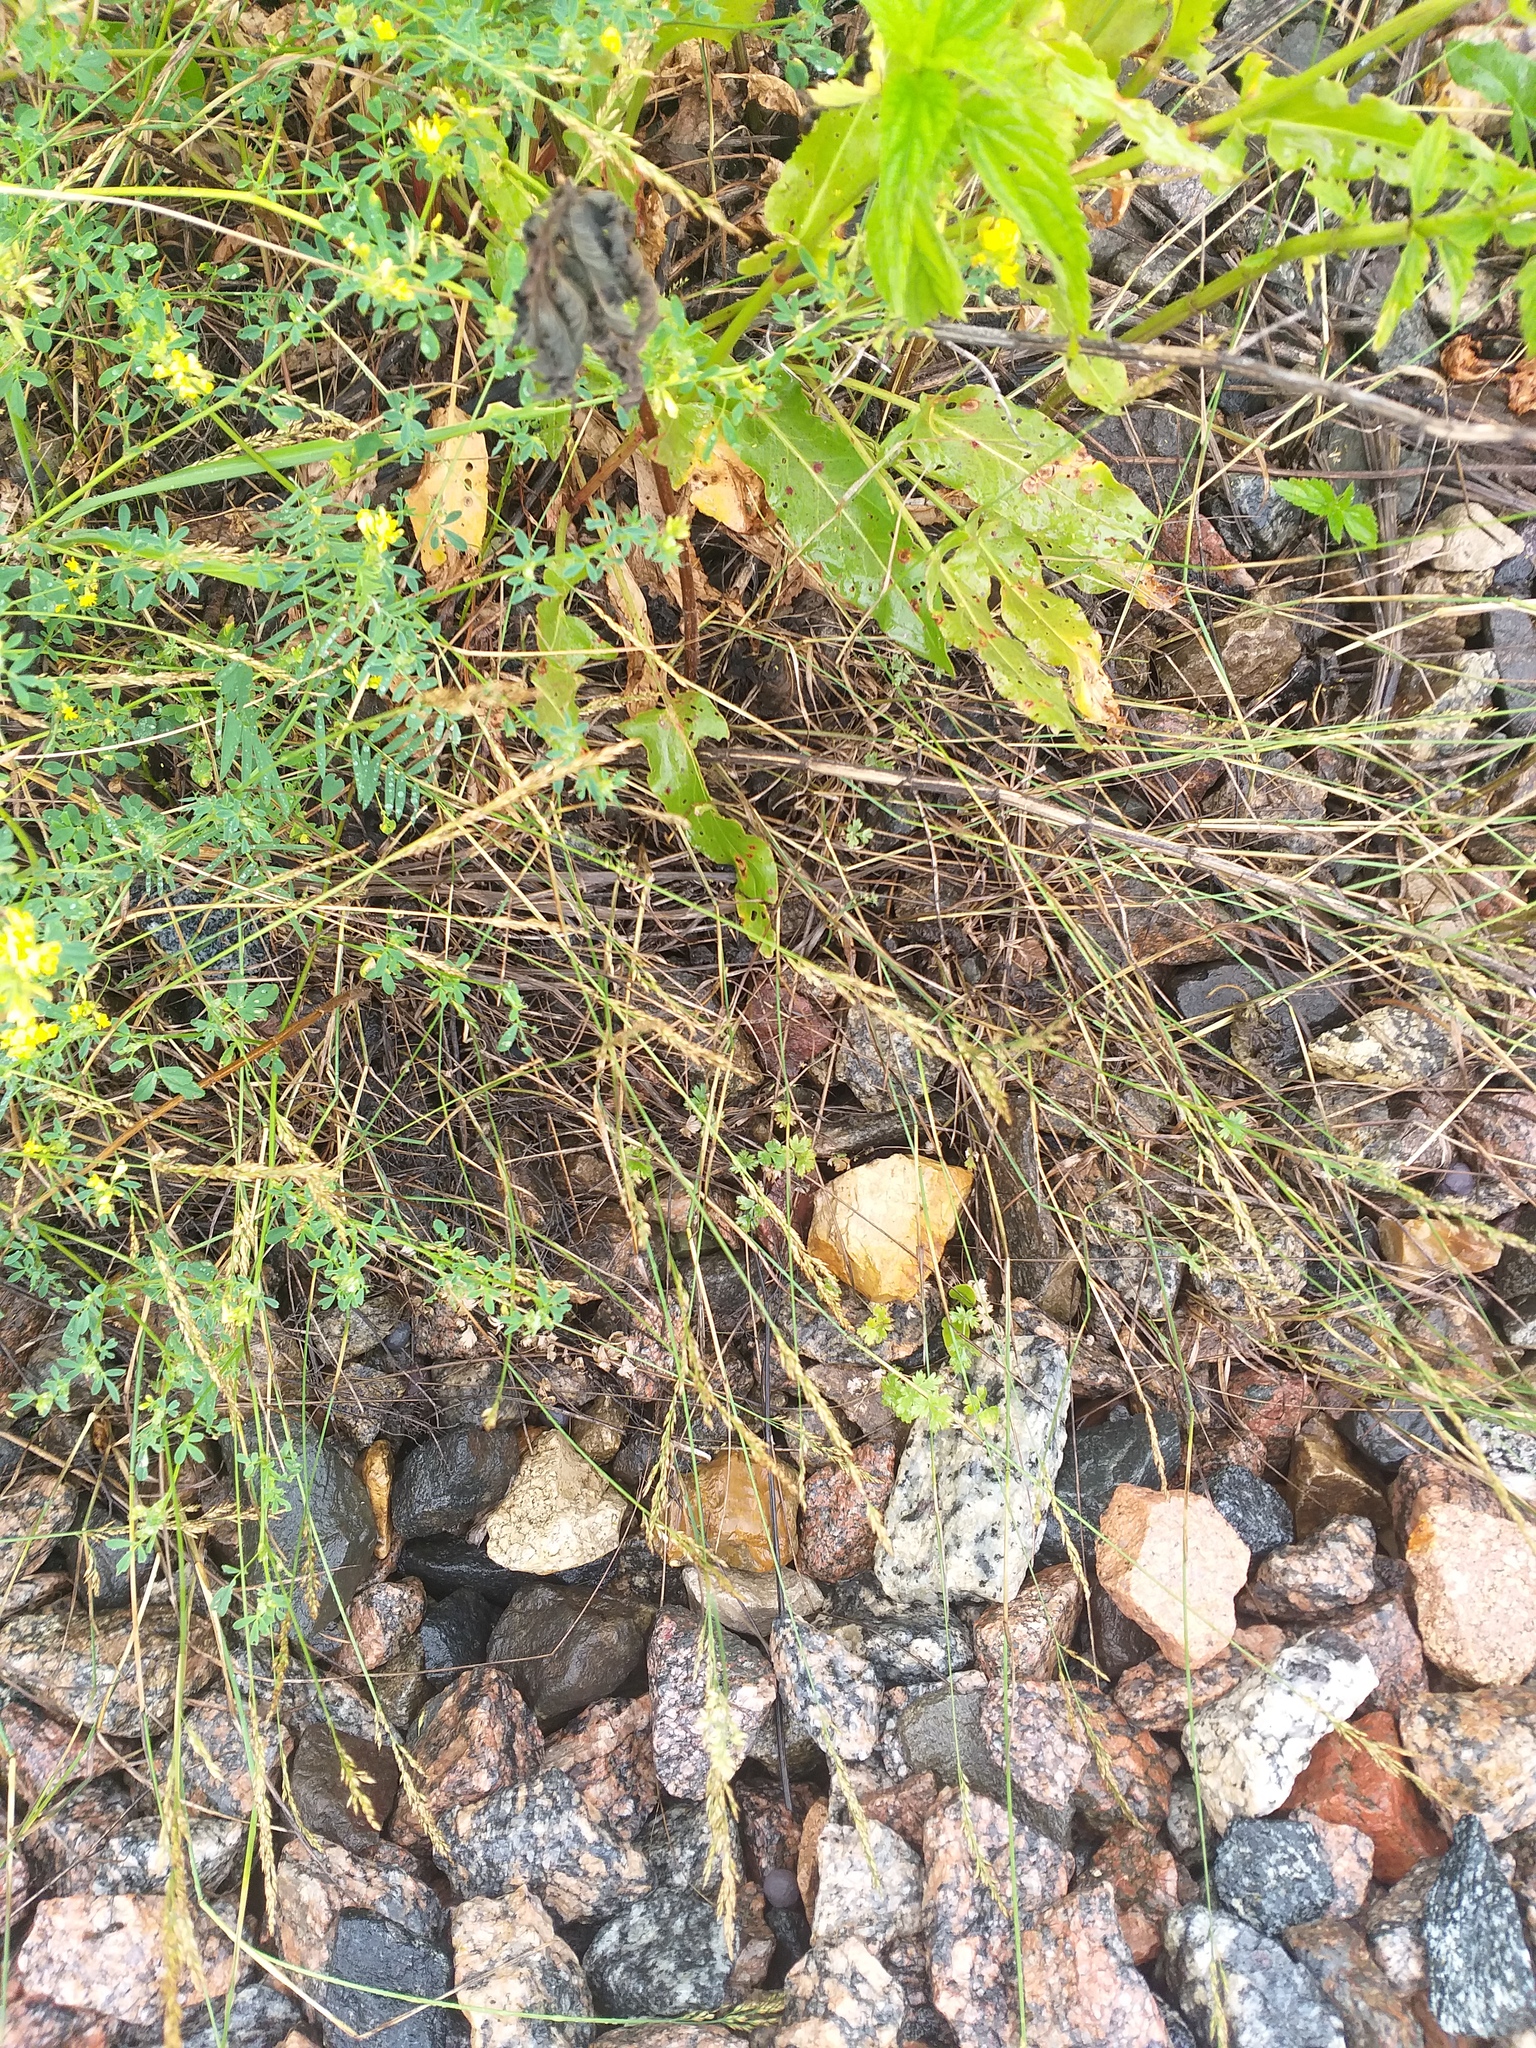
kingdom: Plantae
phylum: Tracheophyta
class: Liliopsida
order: Poales
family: Poaceae
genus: Poa
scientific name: Poa compressa
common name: Canada bluegrass
